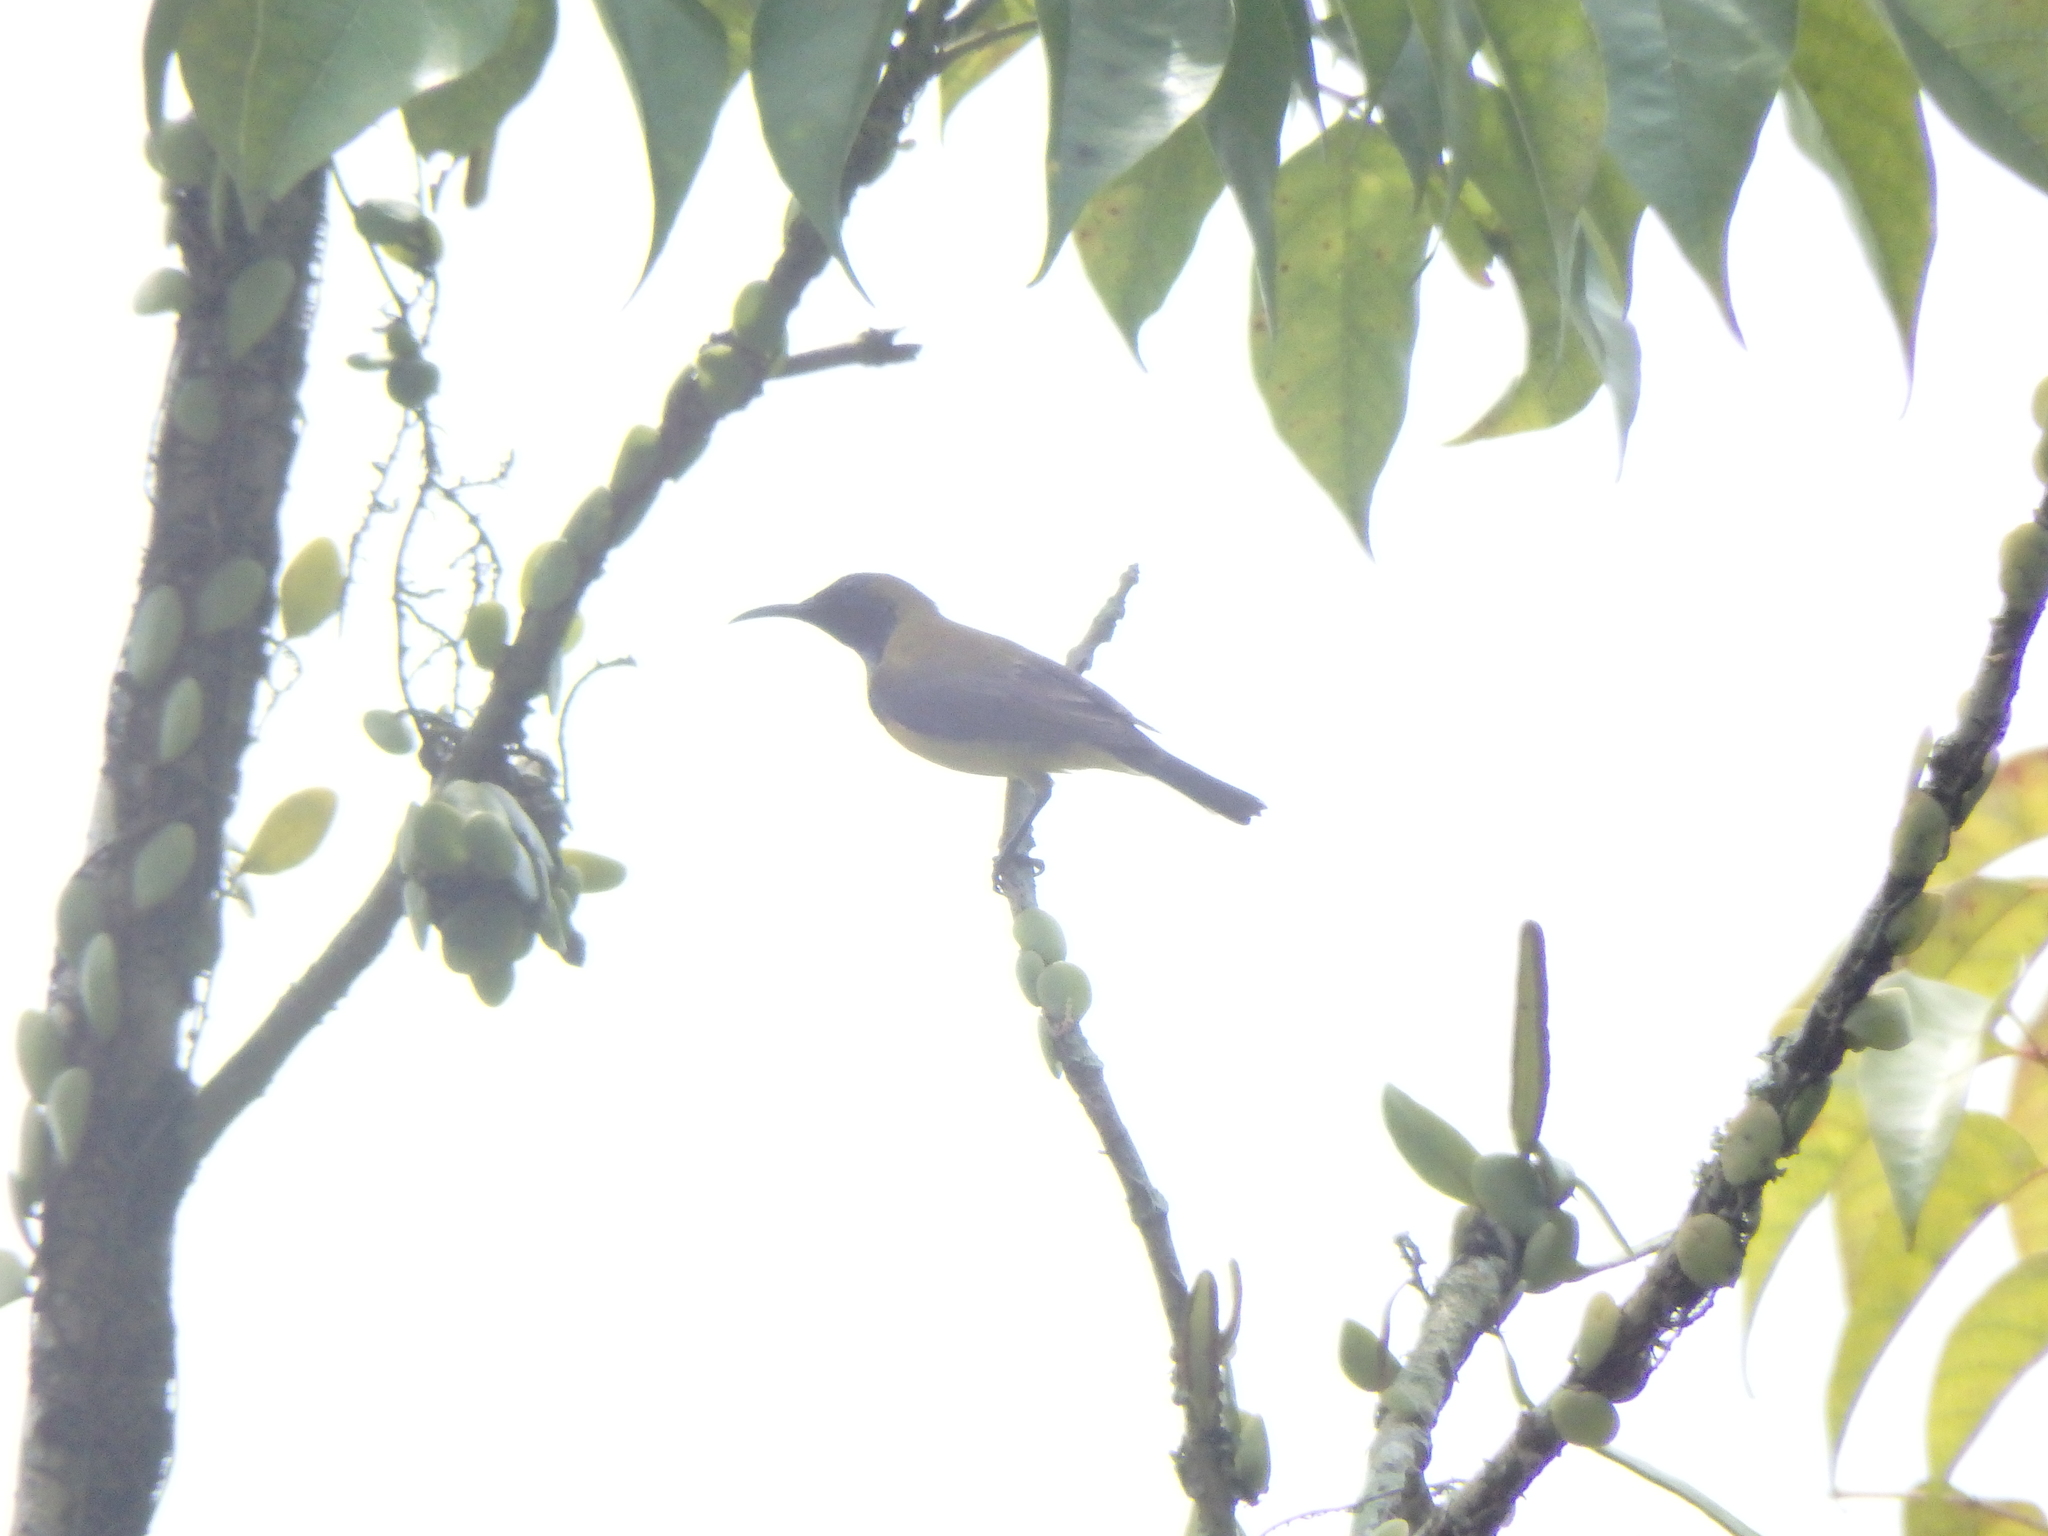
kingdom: Animalia
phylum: Chordata
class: Aves
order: Passeriformes
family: Nectariniidae
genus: Cinnyris
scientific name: Cinnyris
